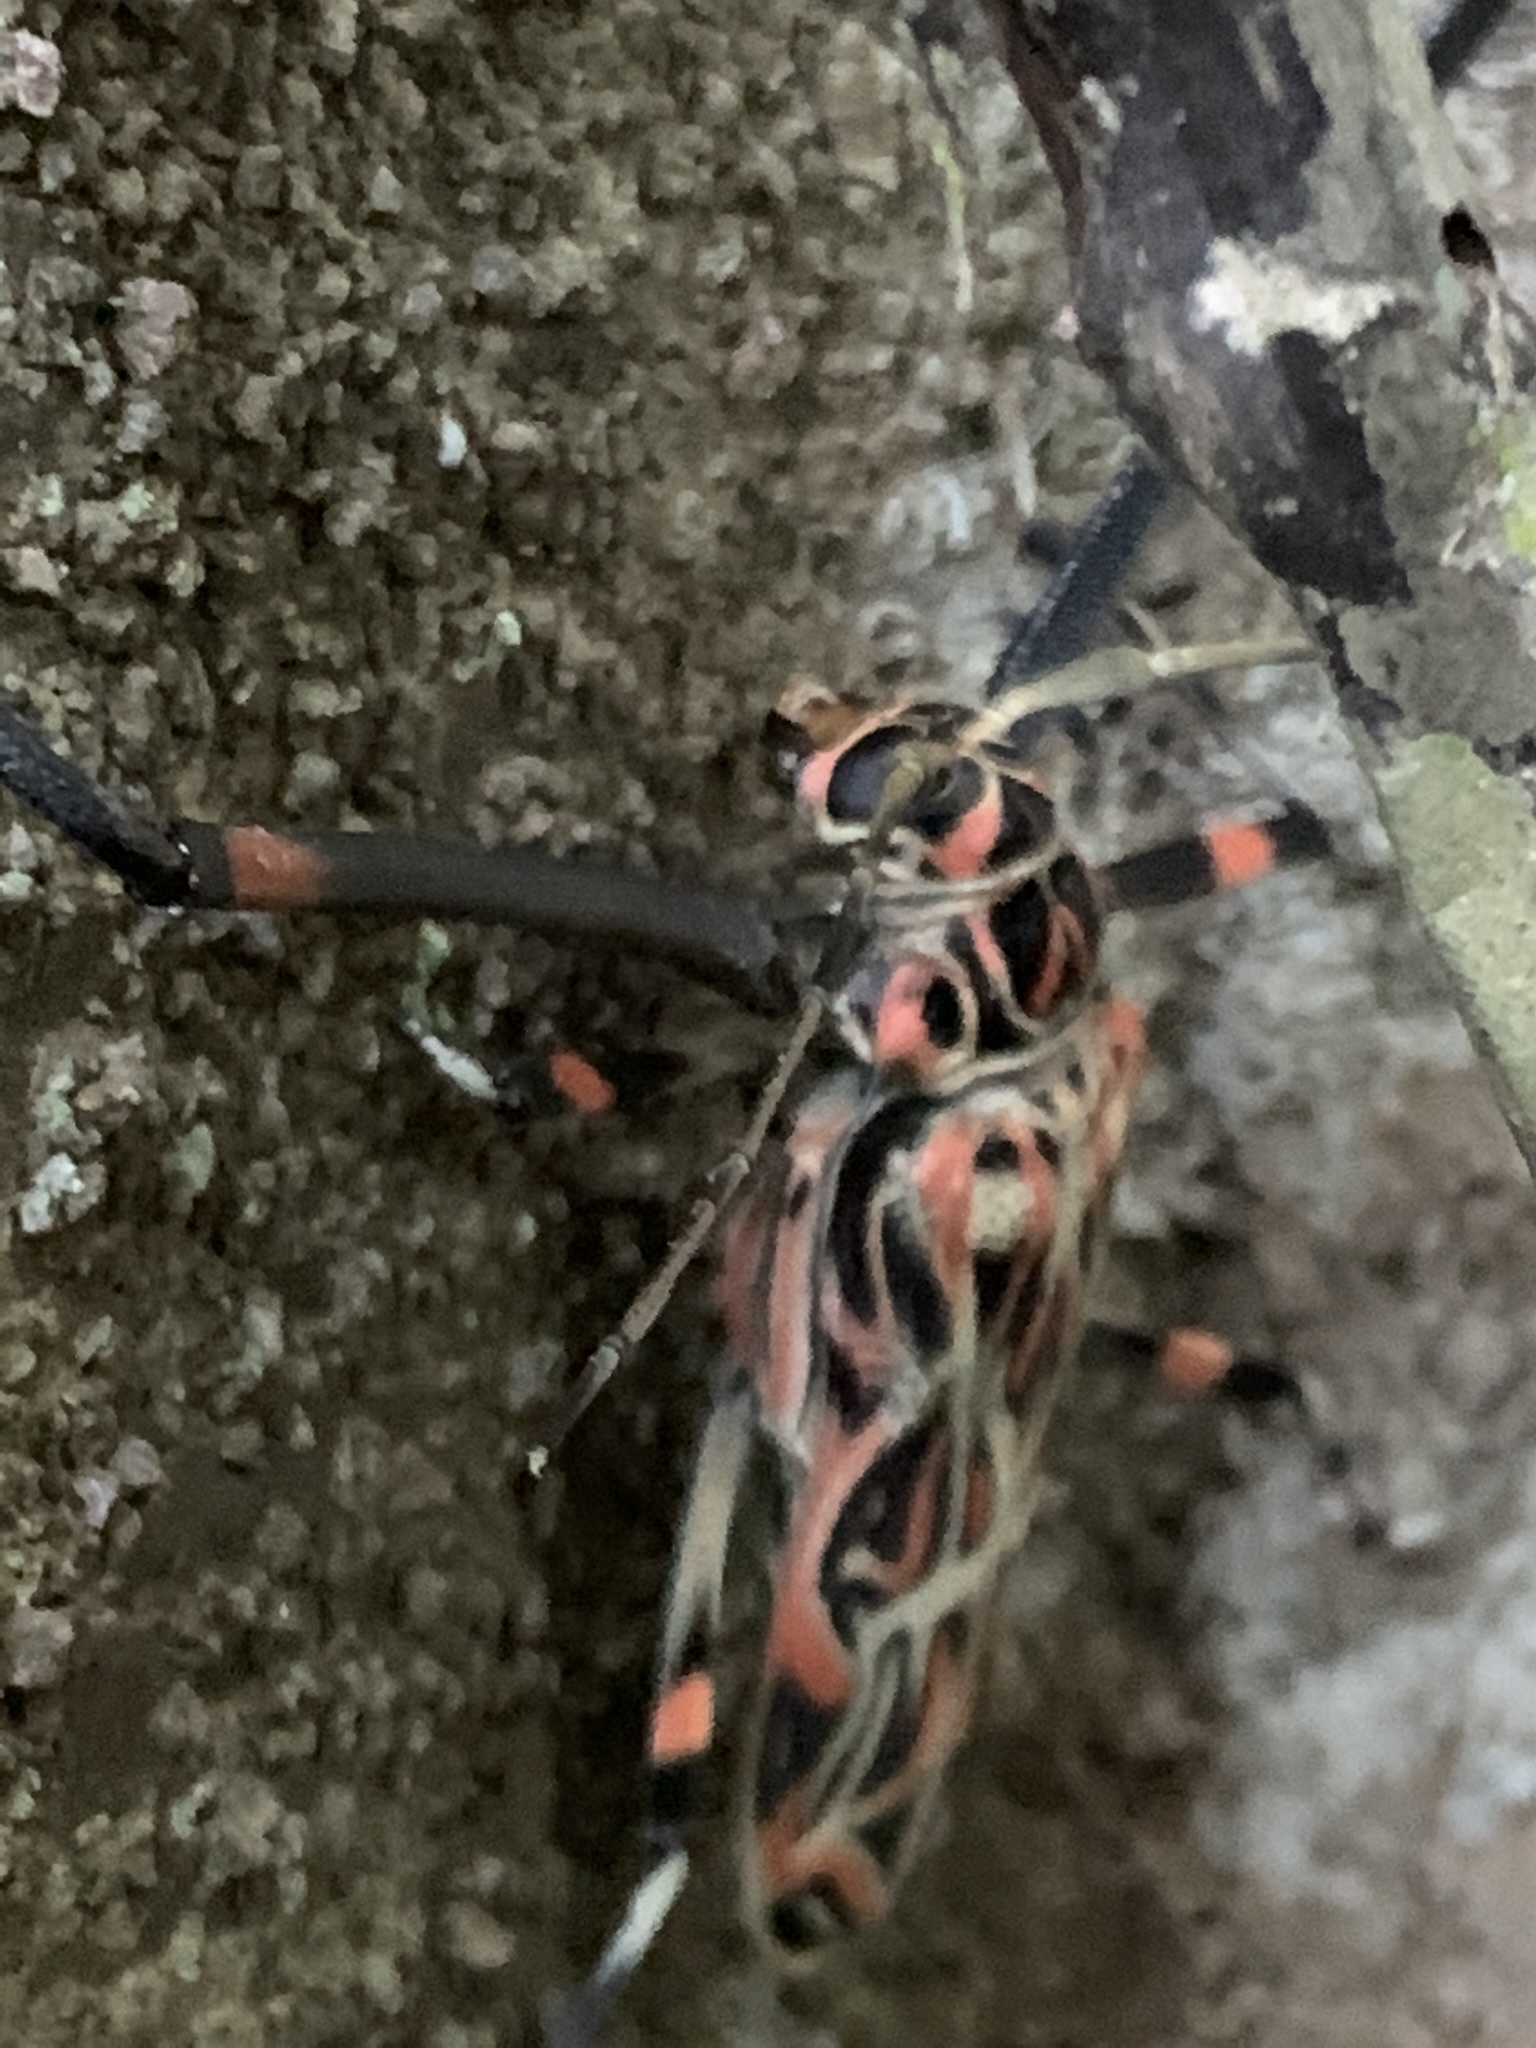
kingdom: Animalia
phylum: Arthropoda
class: Insecta
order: Coleoptera
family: Cerambycidae
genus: Acrocinus
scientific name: Acrocinus longimanus
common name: Arlequin
